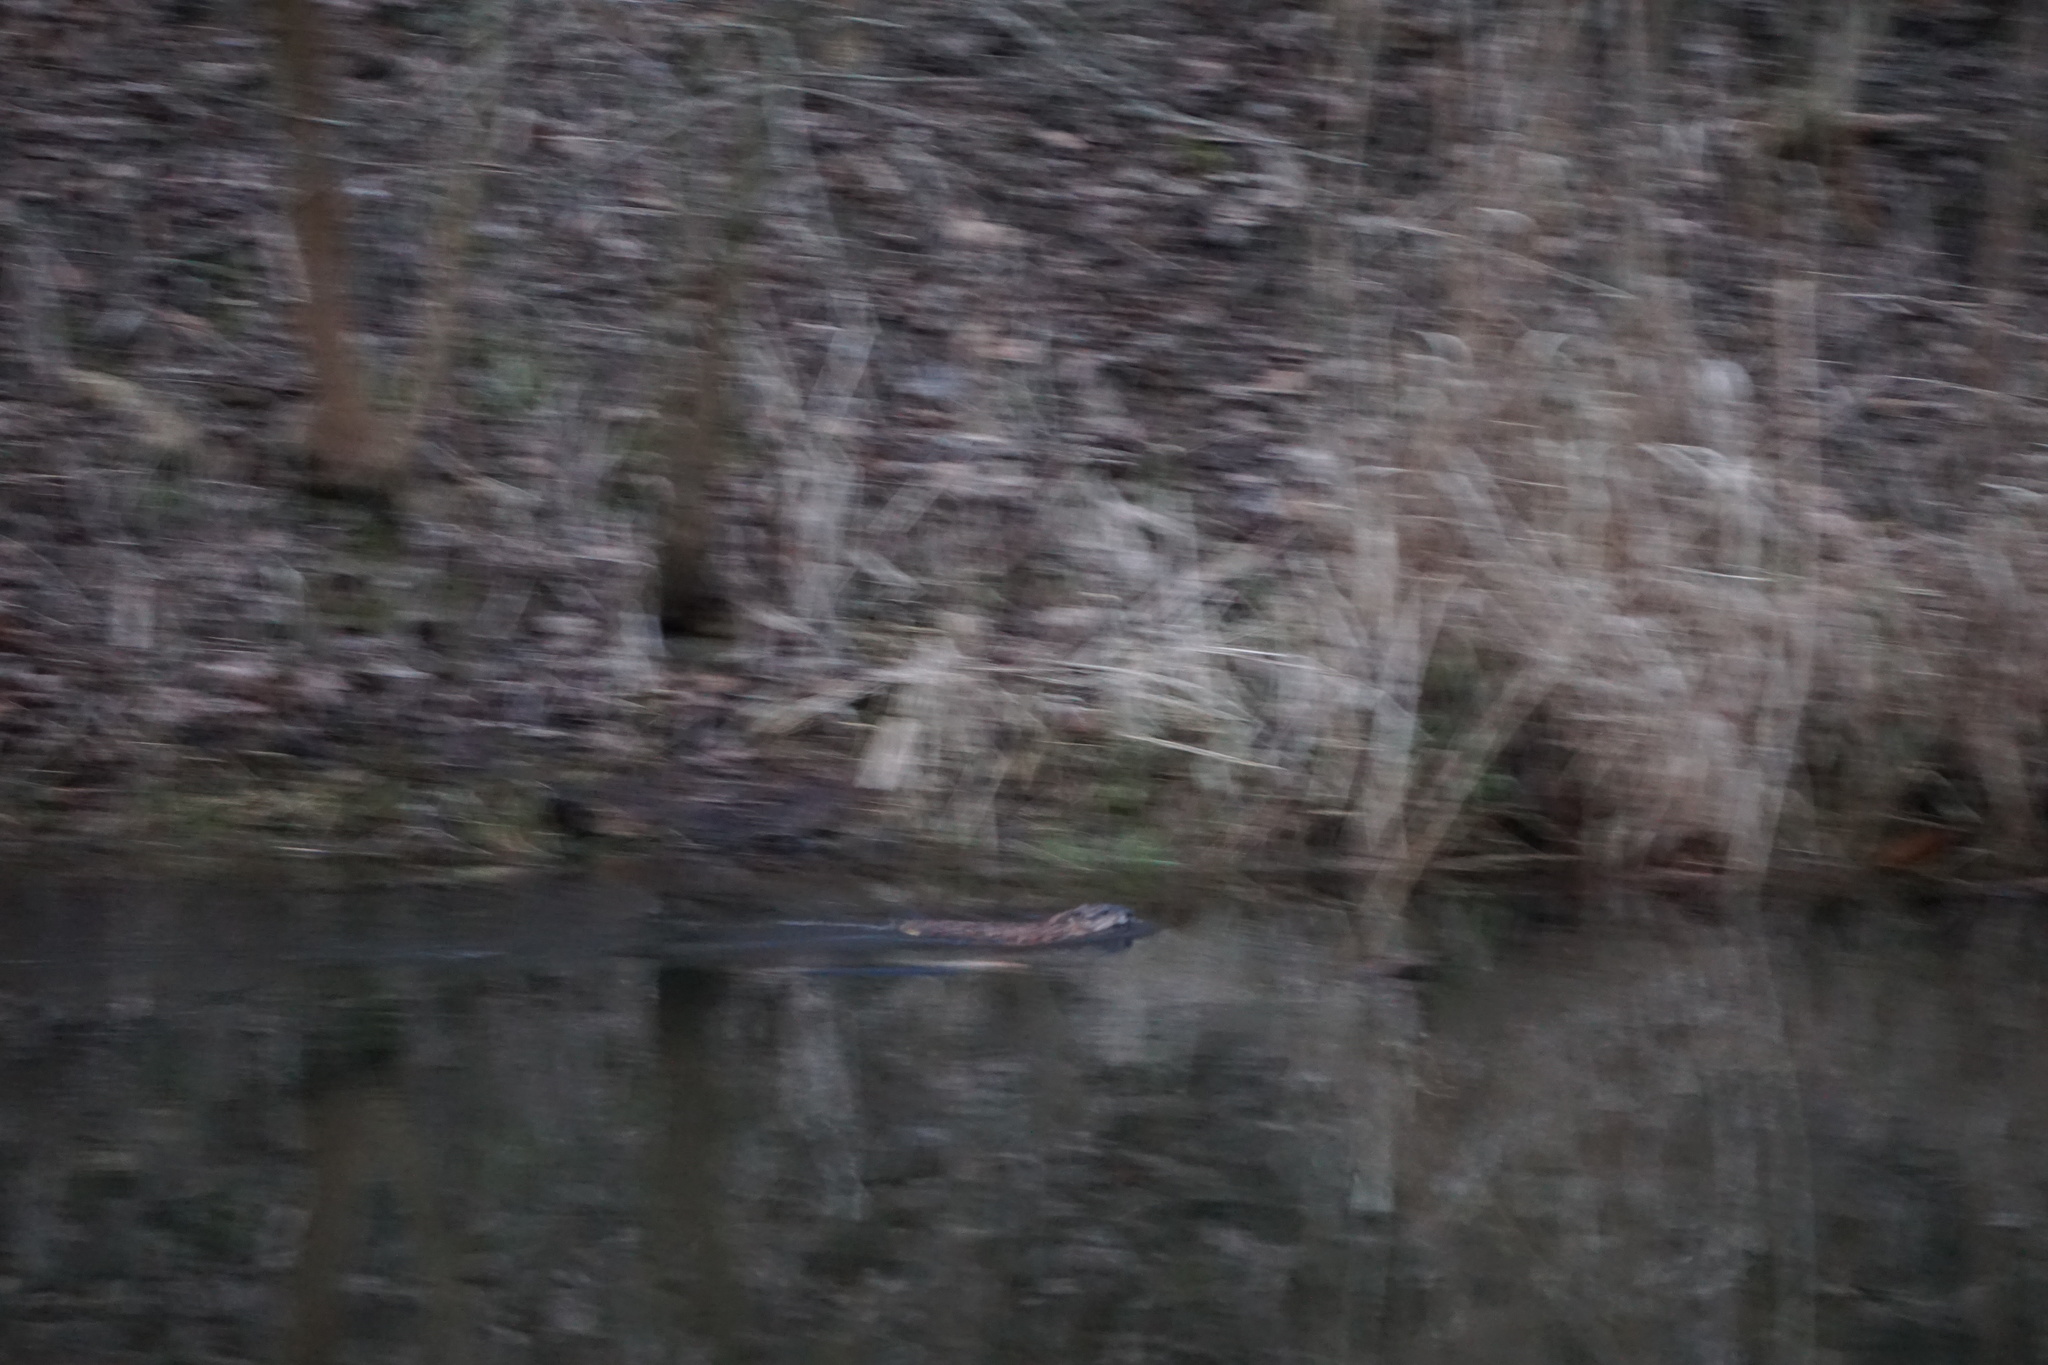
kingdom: Animalia
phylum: Chordata
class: Mammalia
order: Rodentia
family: Cricetidae
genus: Ondatra
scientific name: Ondatra zibethicus
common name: Muskrat
